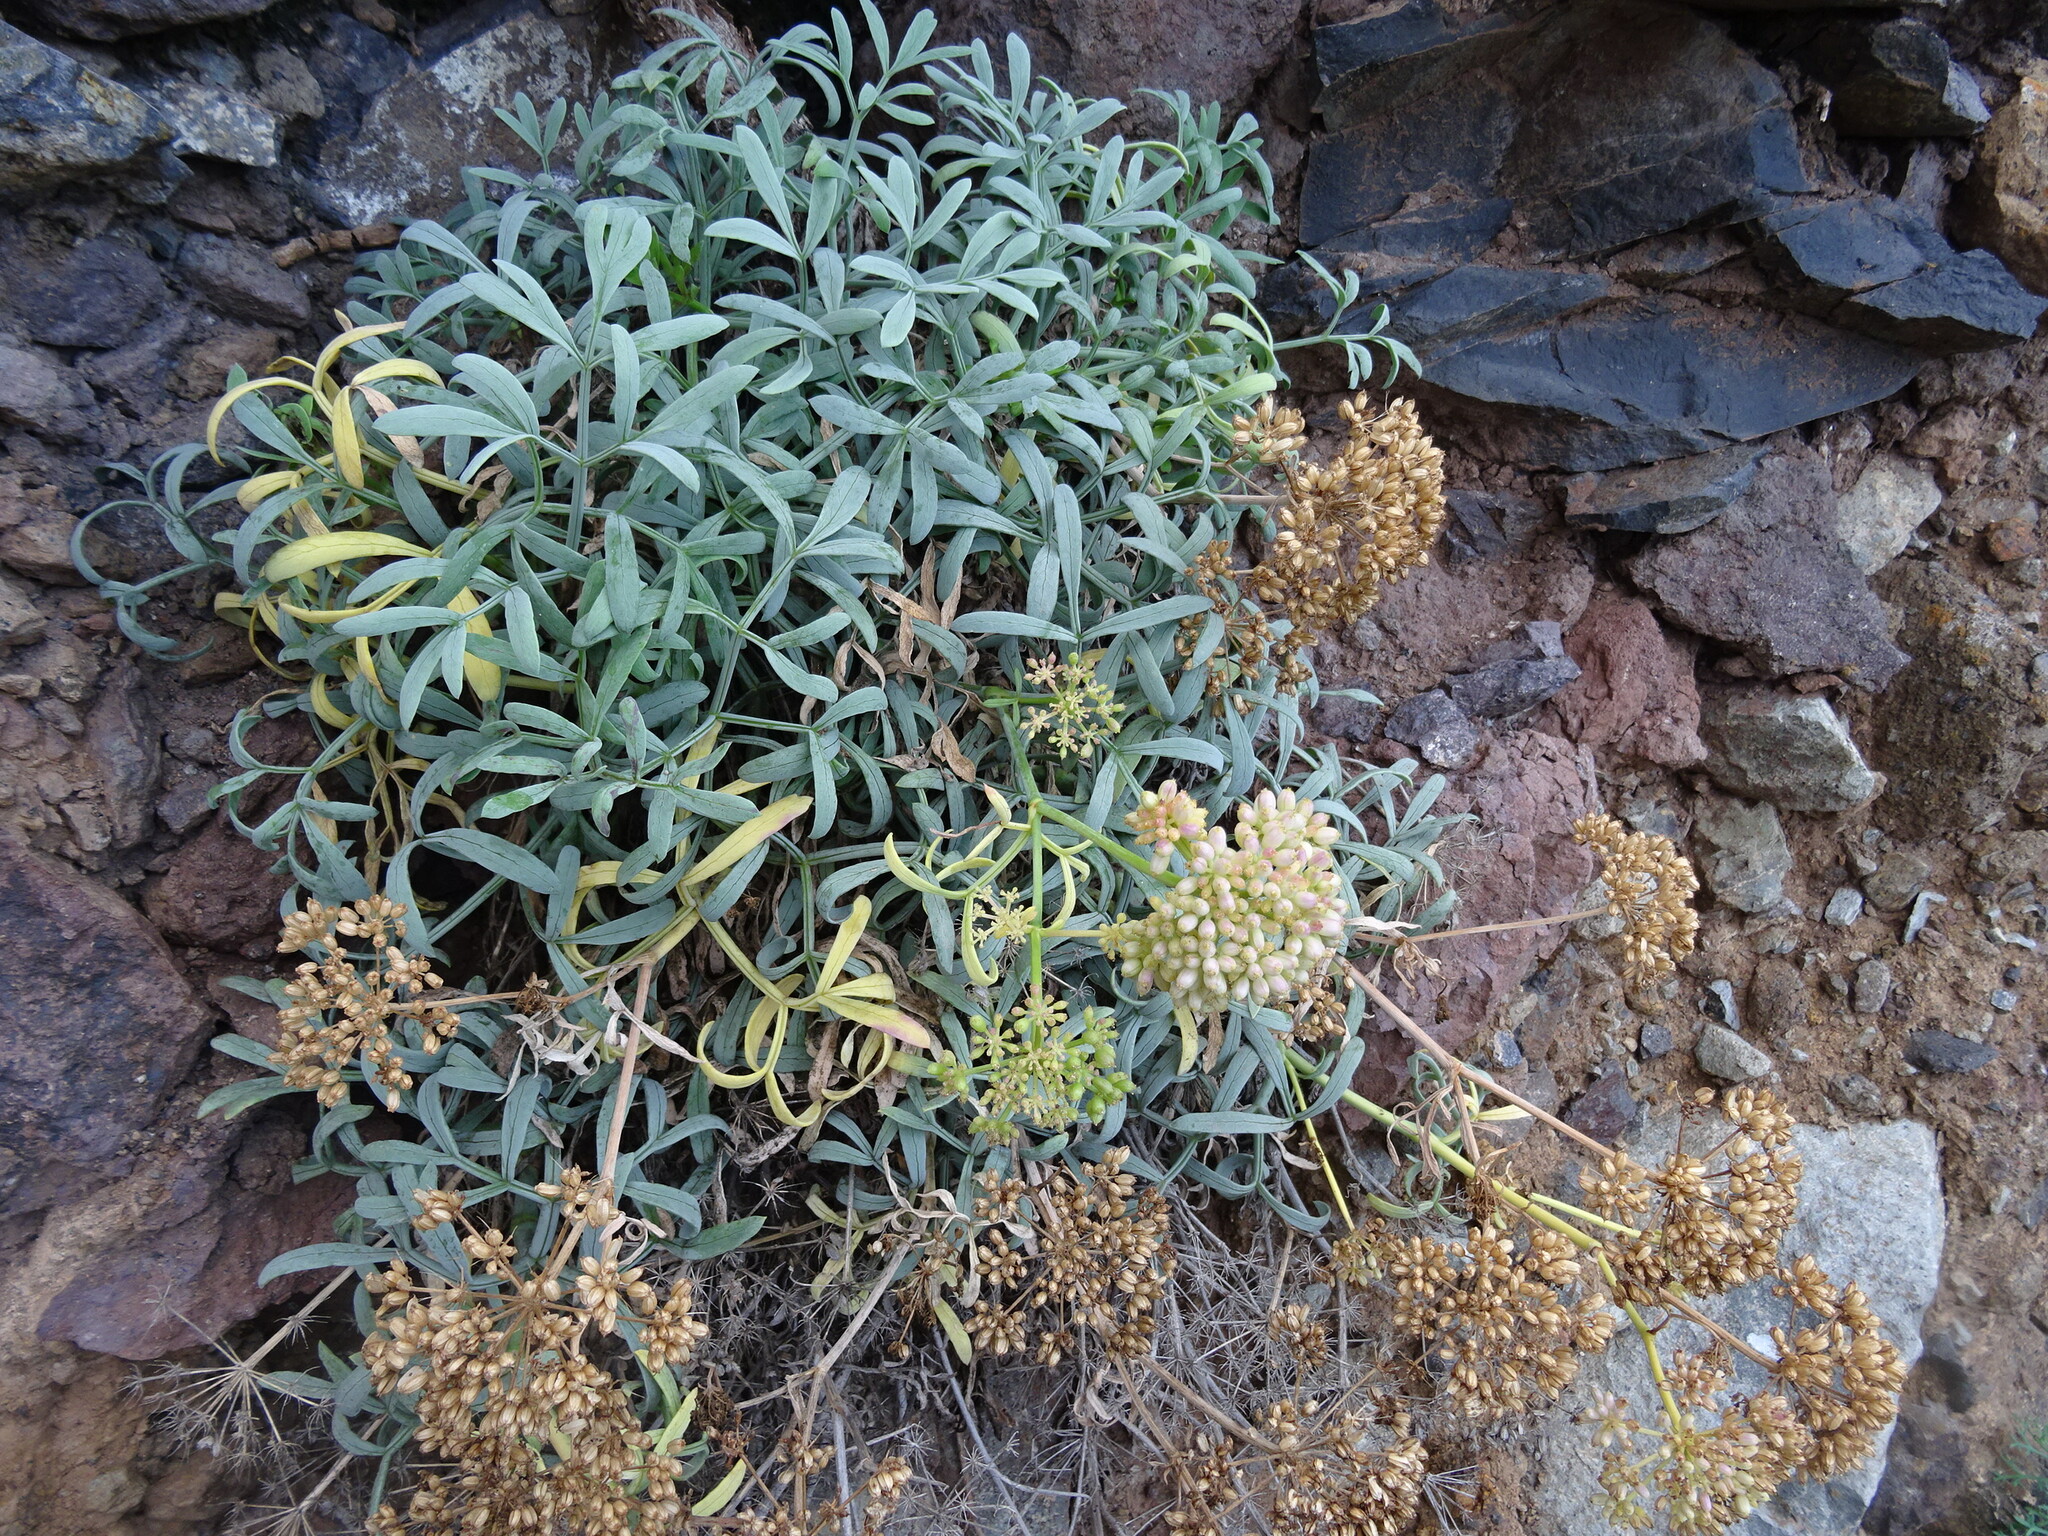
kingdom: Plantae
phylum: Tracheophyta
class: Magnoliopsida
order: Apiales
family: Apiaceae
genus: Crithmum
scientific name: Crithmum maritimum
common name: Rock samphire
